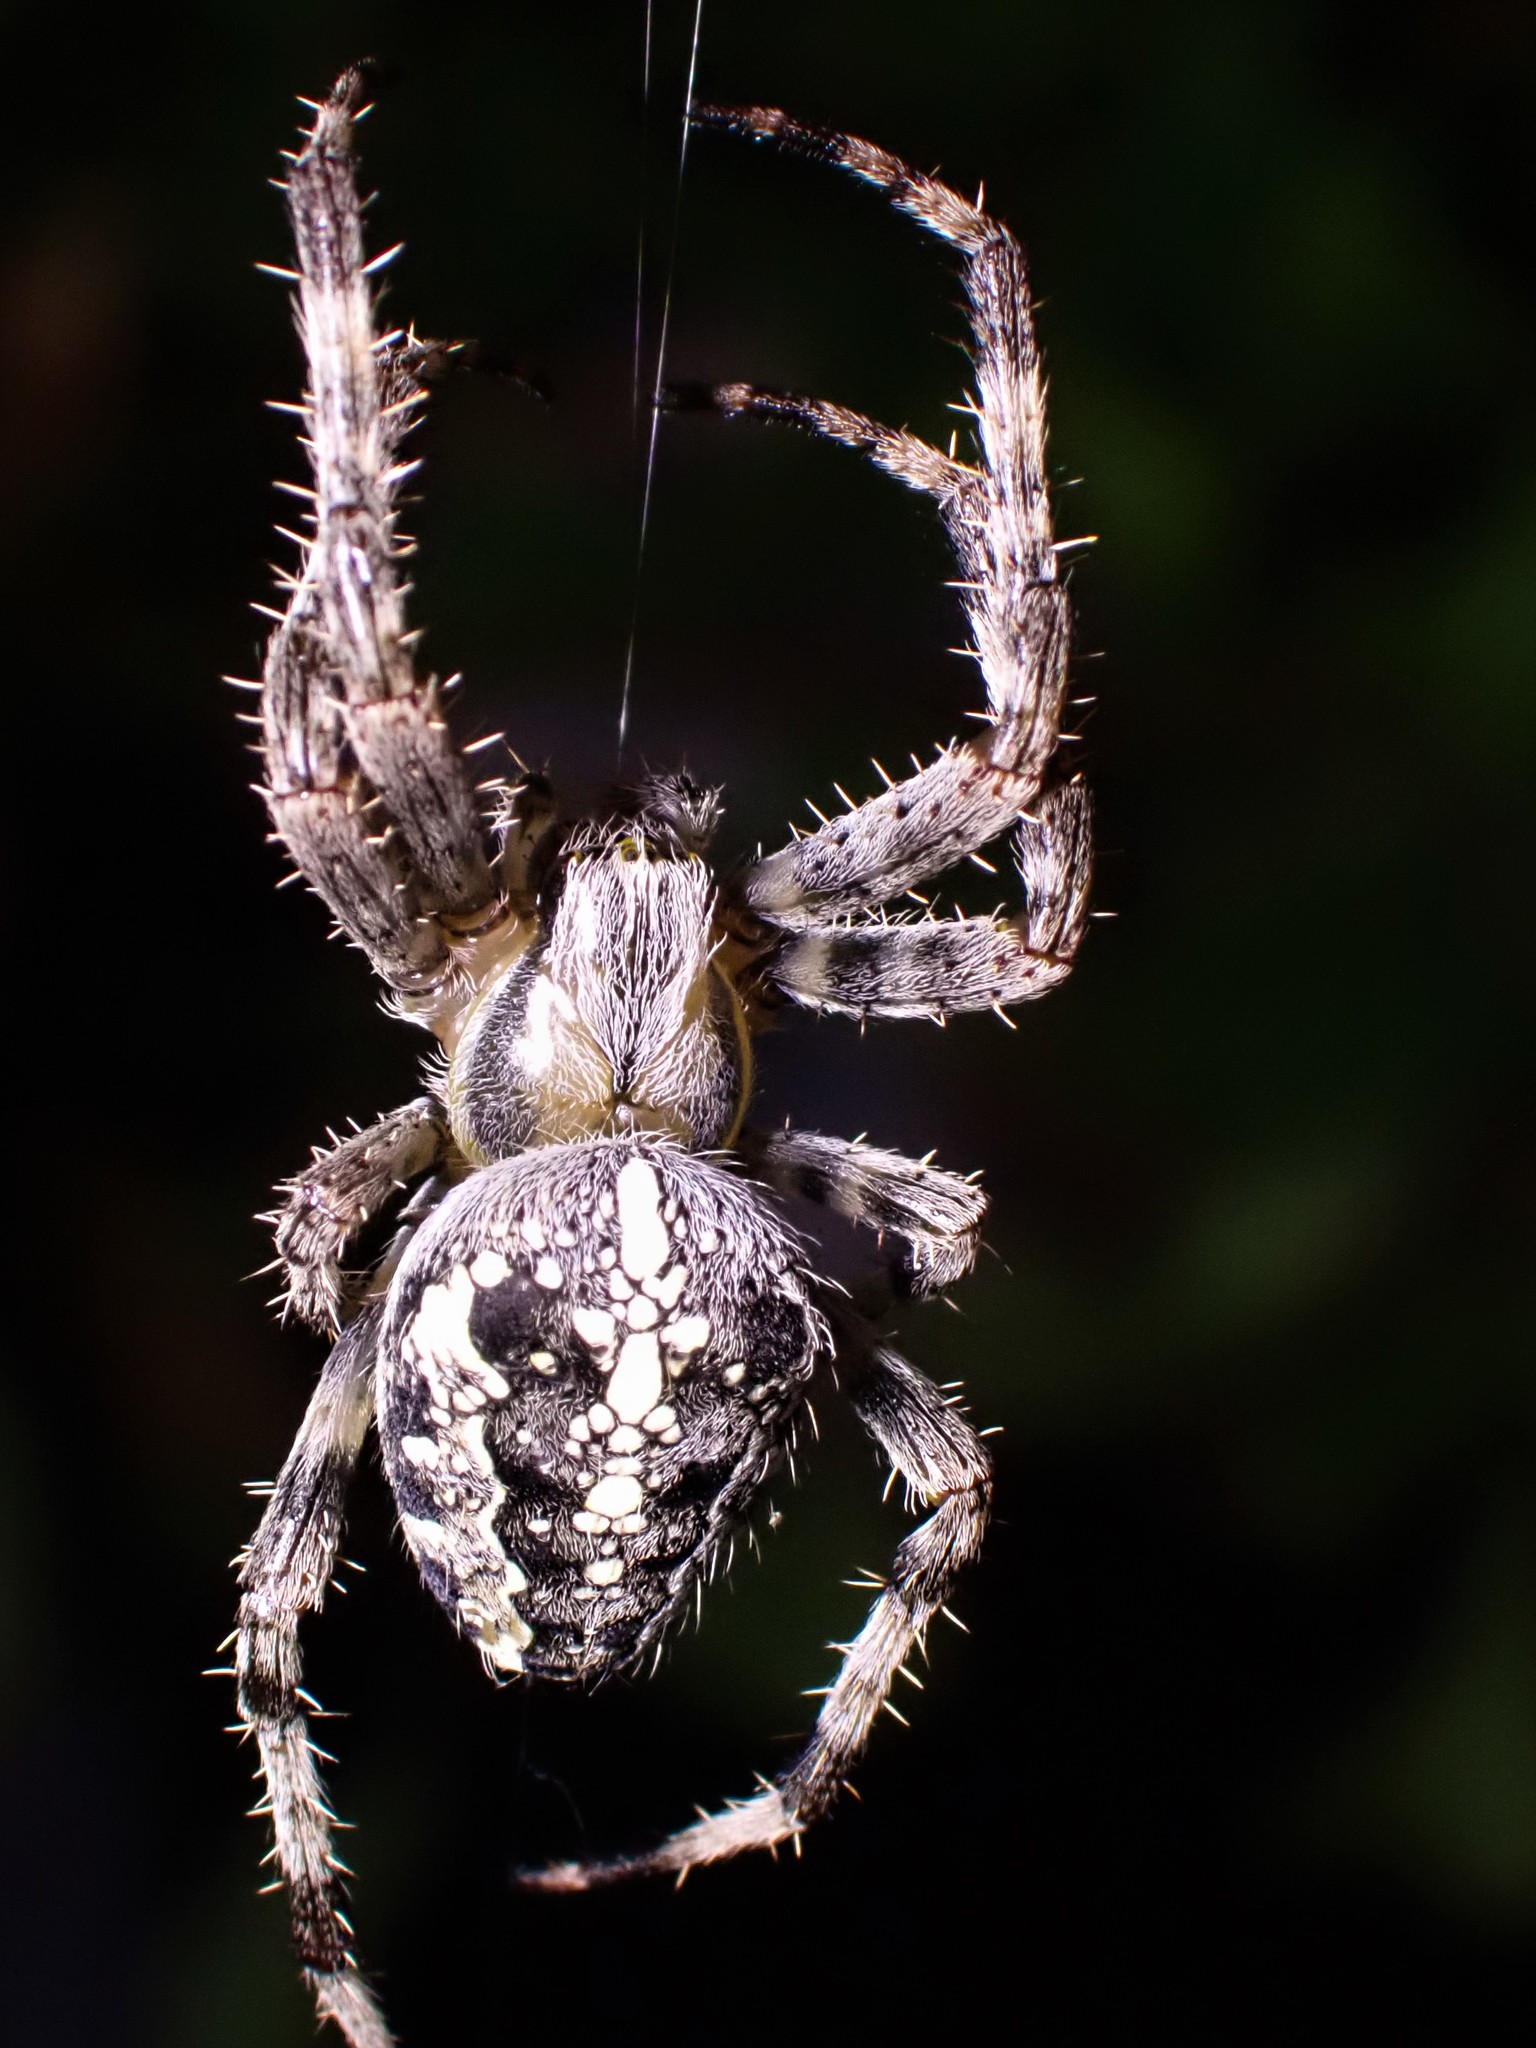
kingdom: Animalia
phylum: Arthropoda
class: Arachnida
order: Araneae
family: Araneidae
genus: Araneus
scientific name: Araneus diadematus
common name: Cross orbweaver
